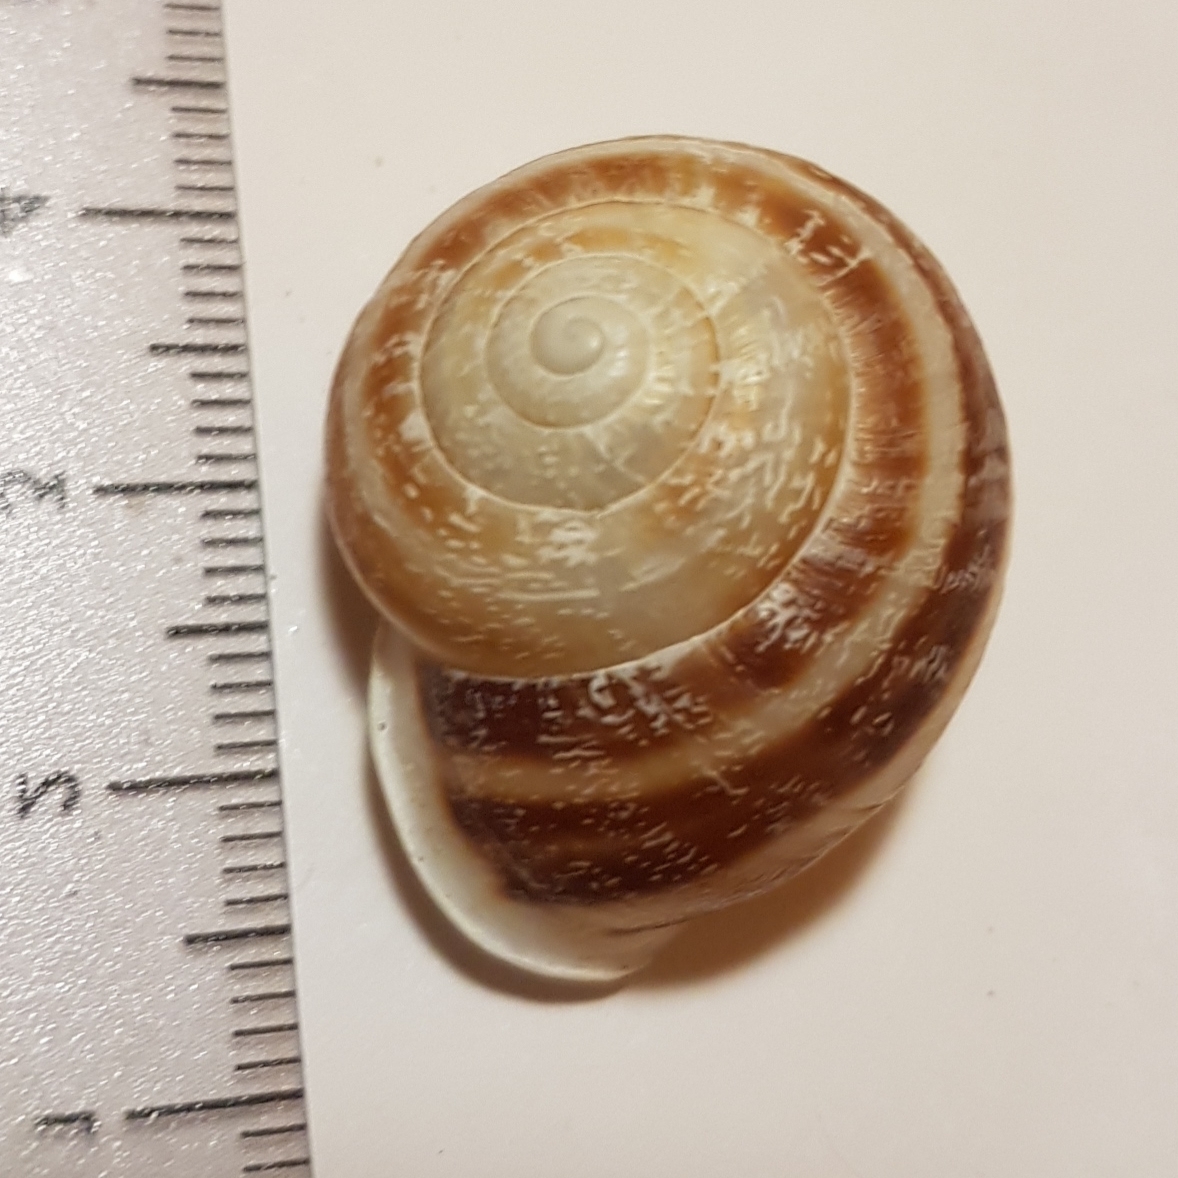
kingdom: Animalia
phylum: Mollusca
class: Gastropoda
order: Stylommatophora
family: Helicidae
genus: Eobania
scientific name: Eobania vermiculata
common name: Chocolateband snail
